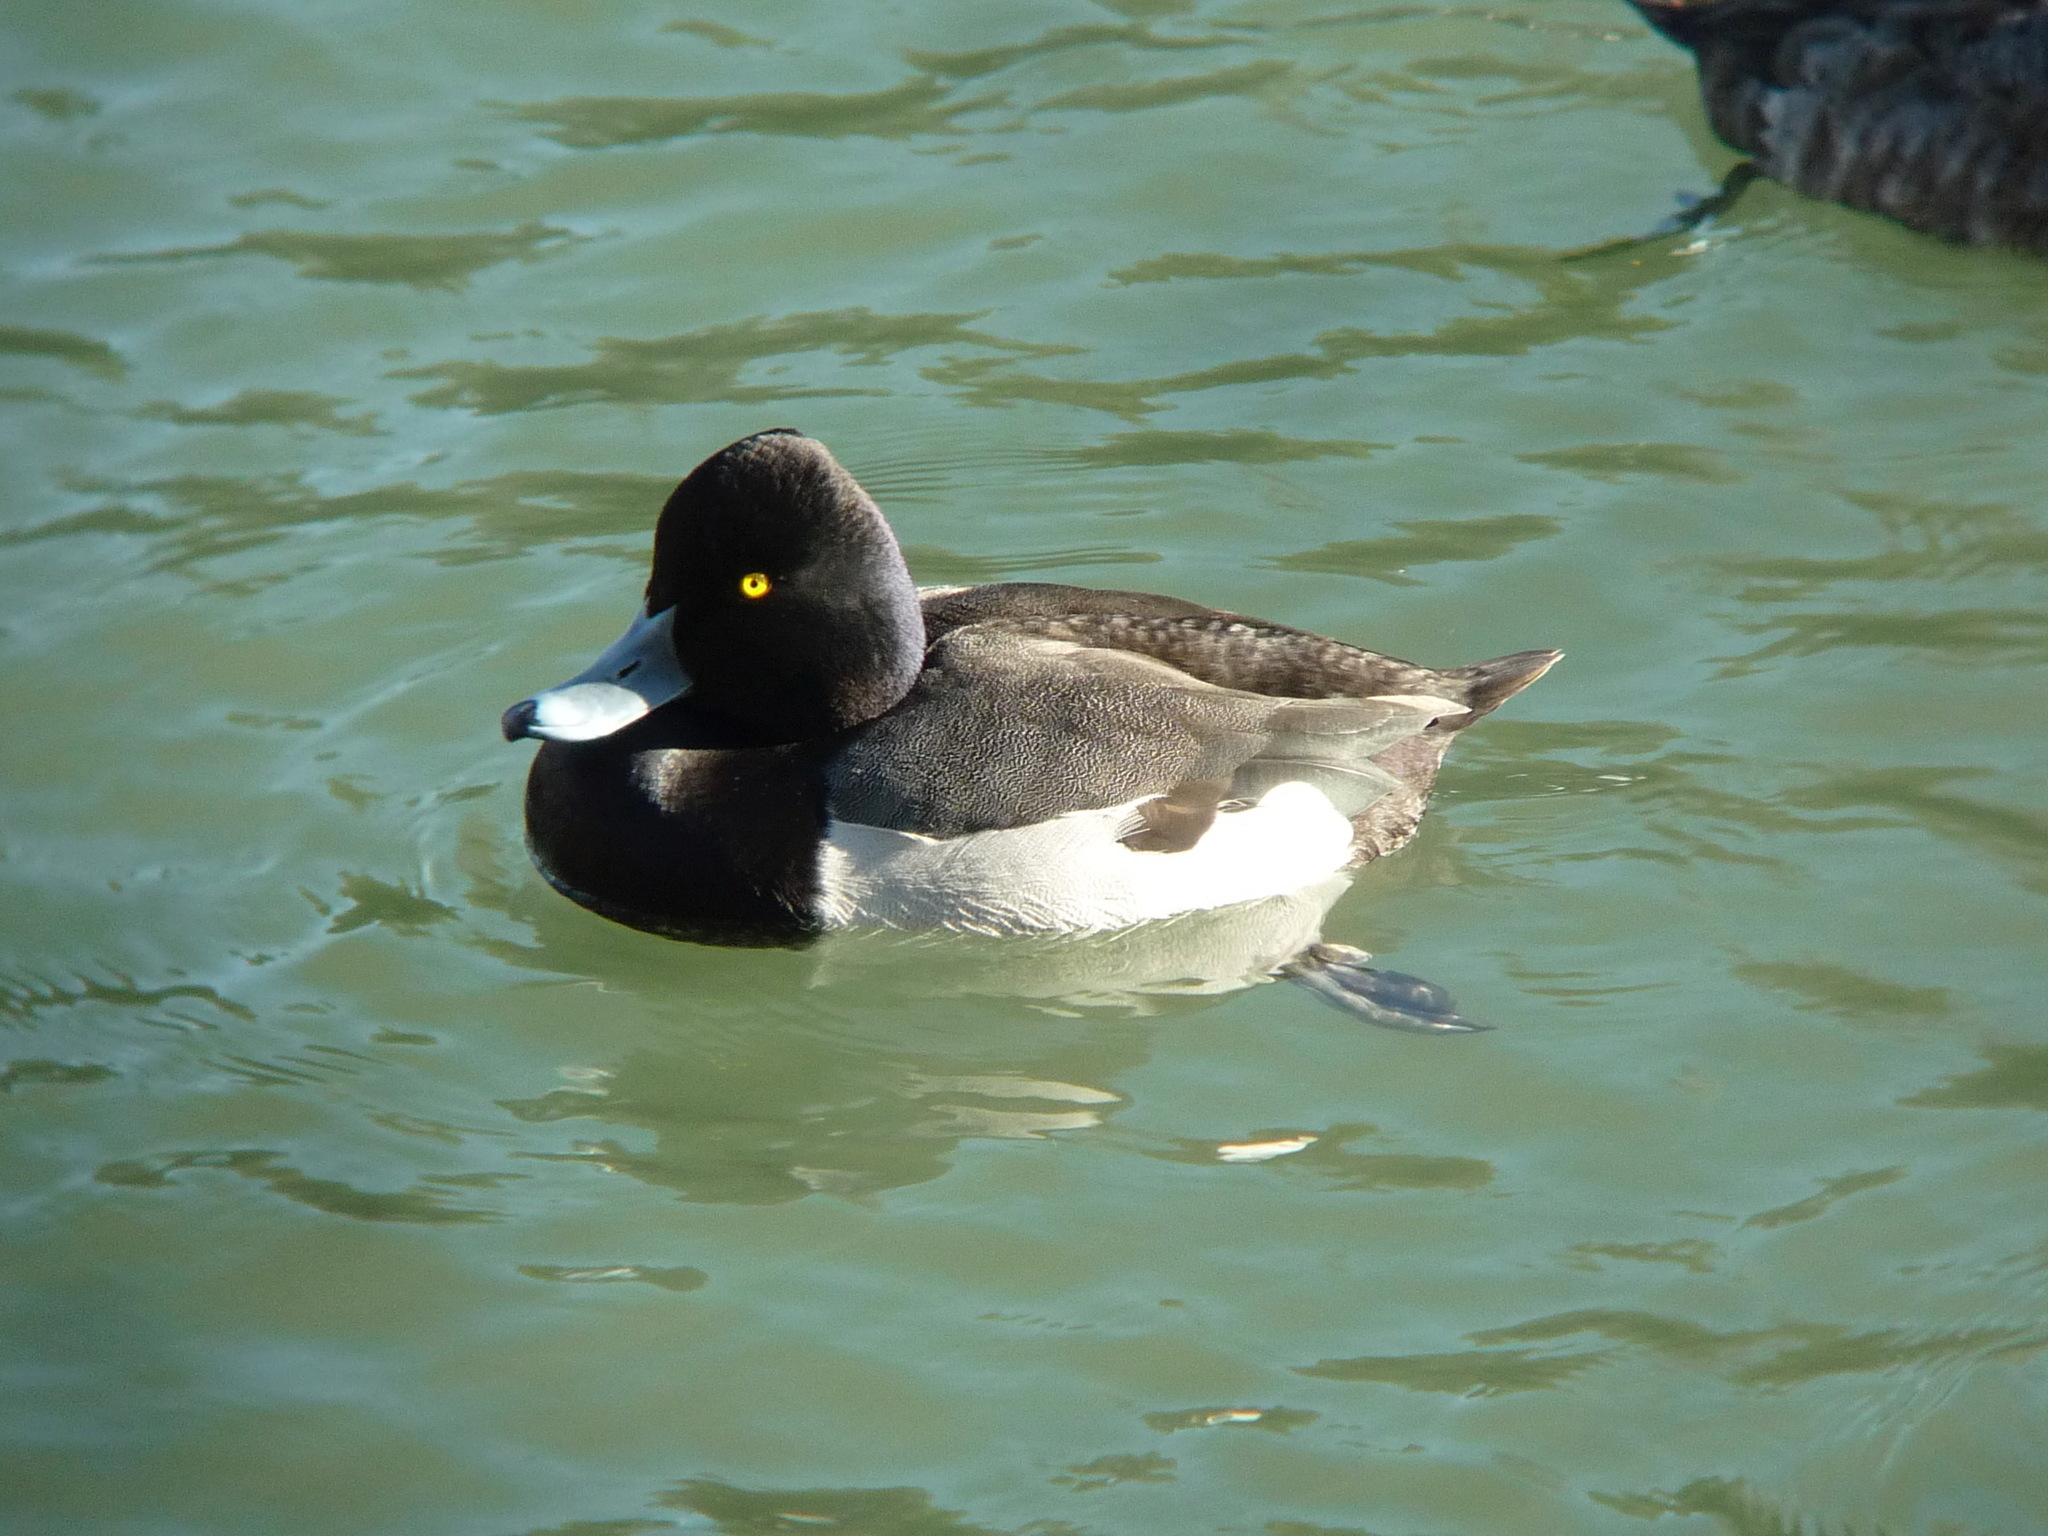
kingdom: Animalia
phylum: Chordata
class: Aves
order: Anseriformes
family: Anatidae
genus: Aythya
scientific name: Aythya
